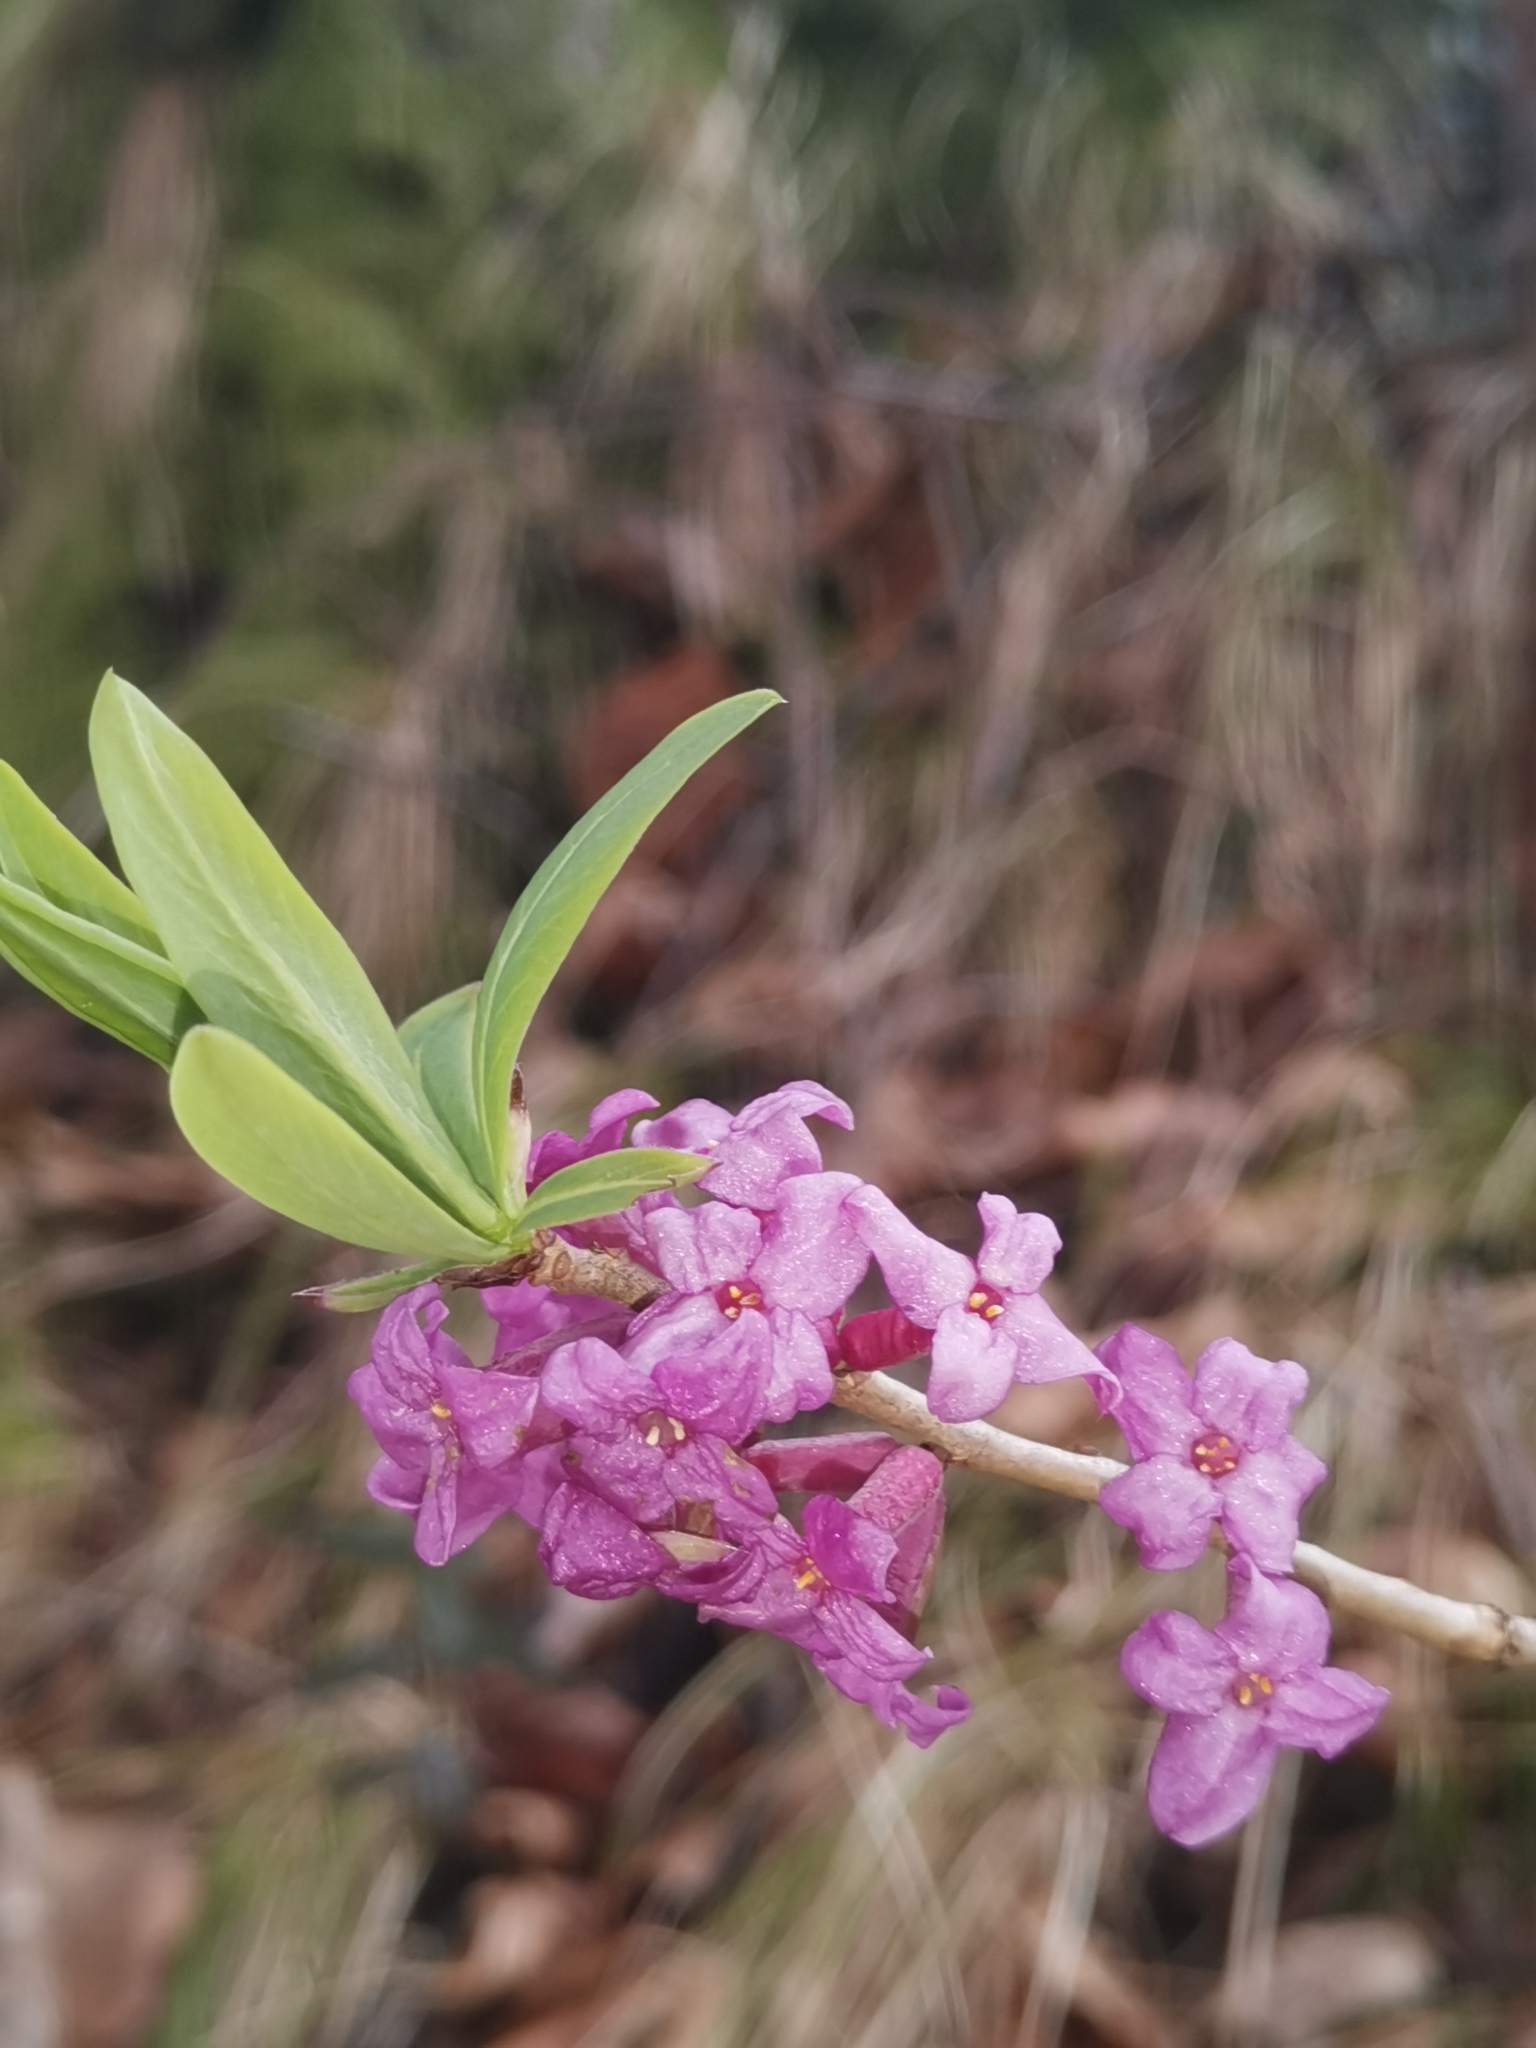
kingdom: Plantae
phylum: Tracheophyta
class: Magnoliopsida
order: Malvales
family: Thymelaeaceae
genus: Daphne
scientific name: Daphne mezereum
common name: Mezereon
